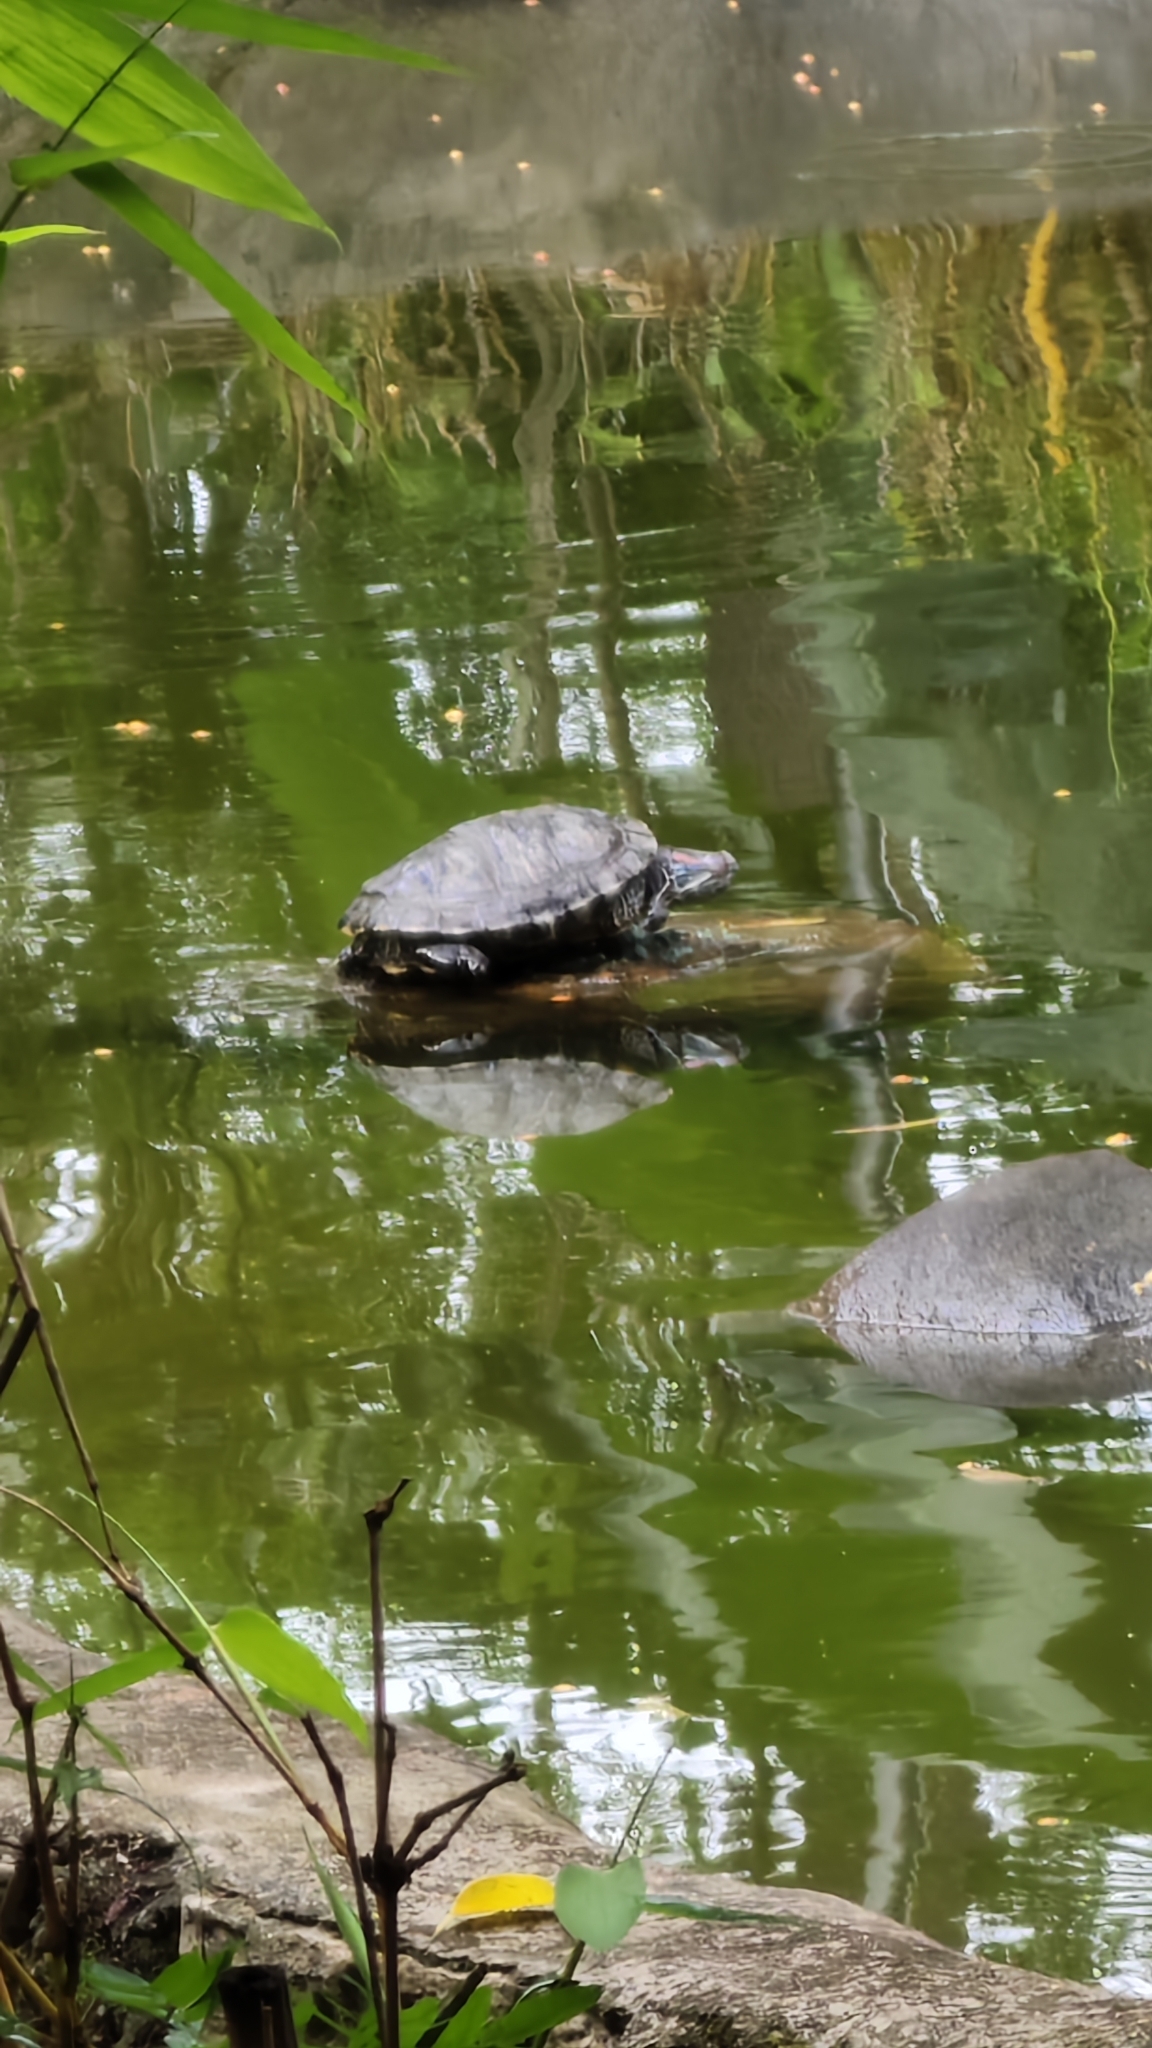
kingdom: Animalia
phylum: Chordata
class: Testudines
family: Emydidae
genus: Trachemys
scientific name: Trachemys scripta
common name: Slider
